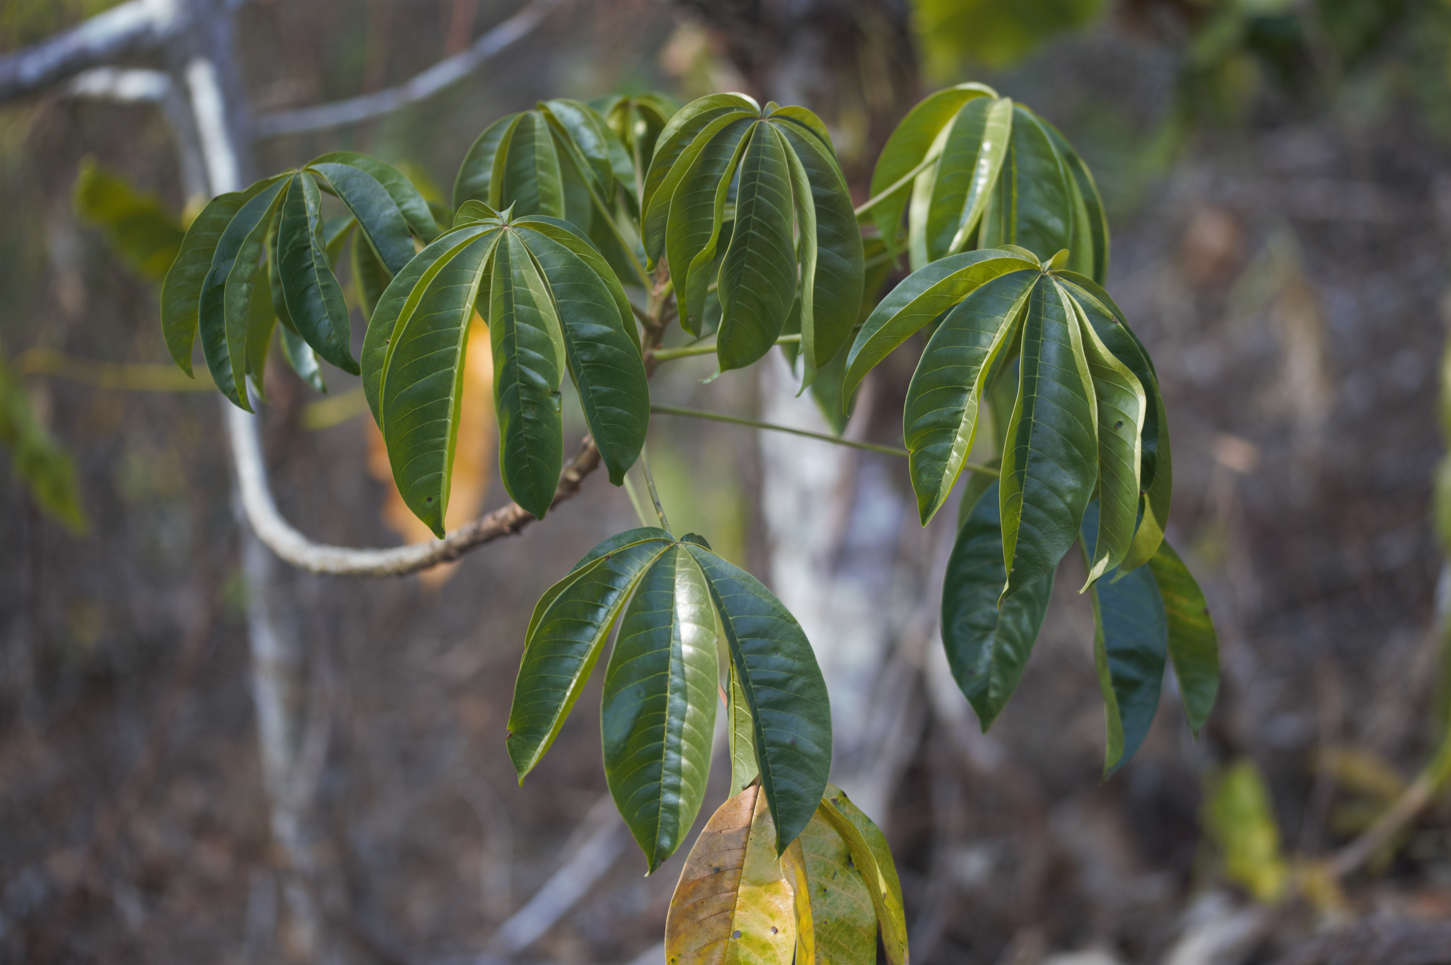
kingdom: Plantae
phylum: Tracheophyta
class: Magnoliopsida
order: Malvales
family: Cochlospermaceae
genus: Cochlospermum
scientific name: Cochlospermum orinocense
